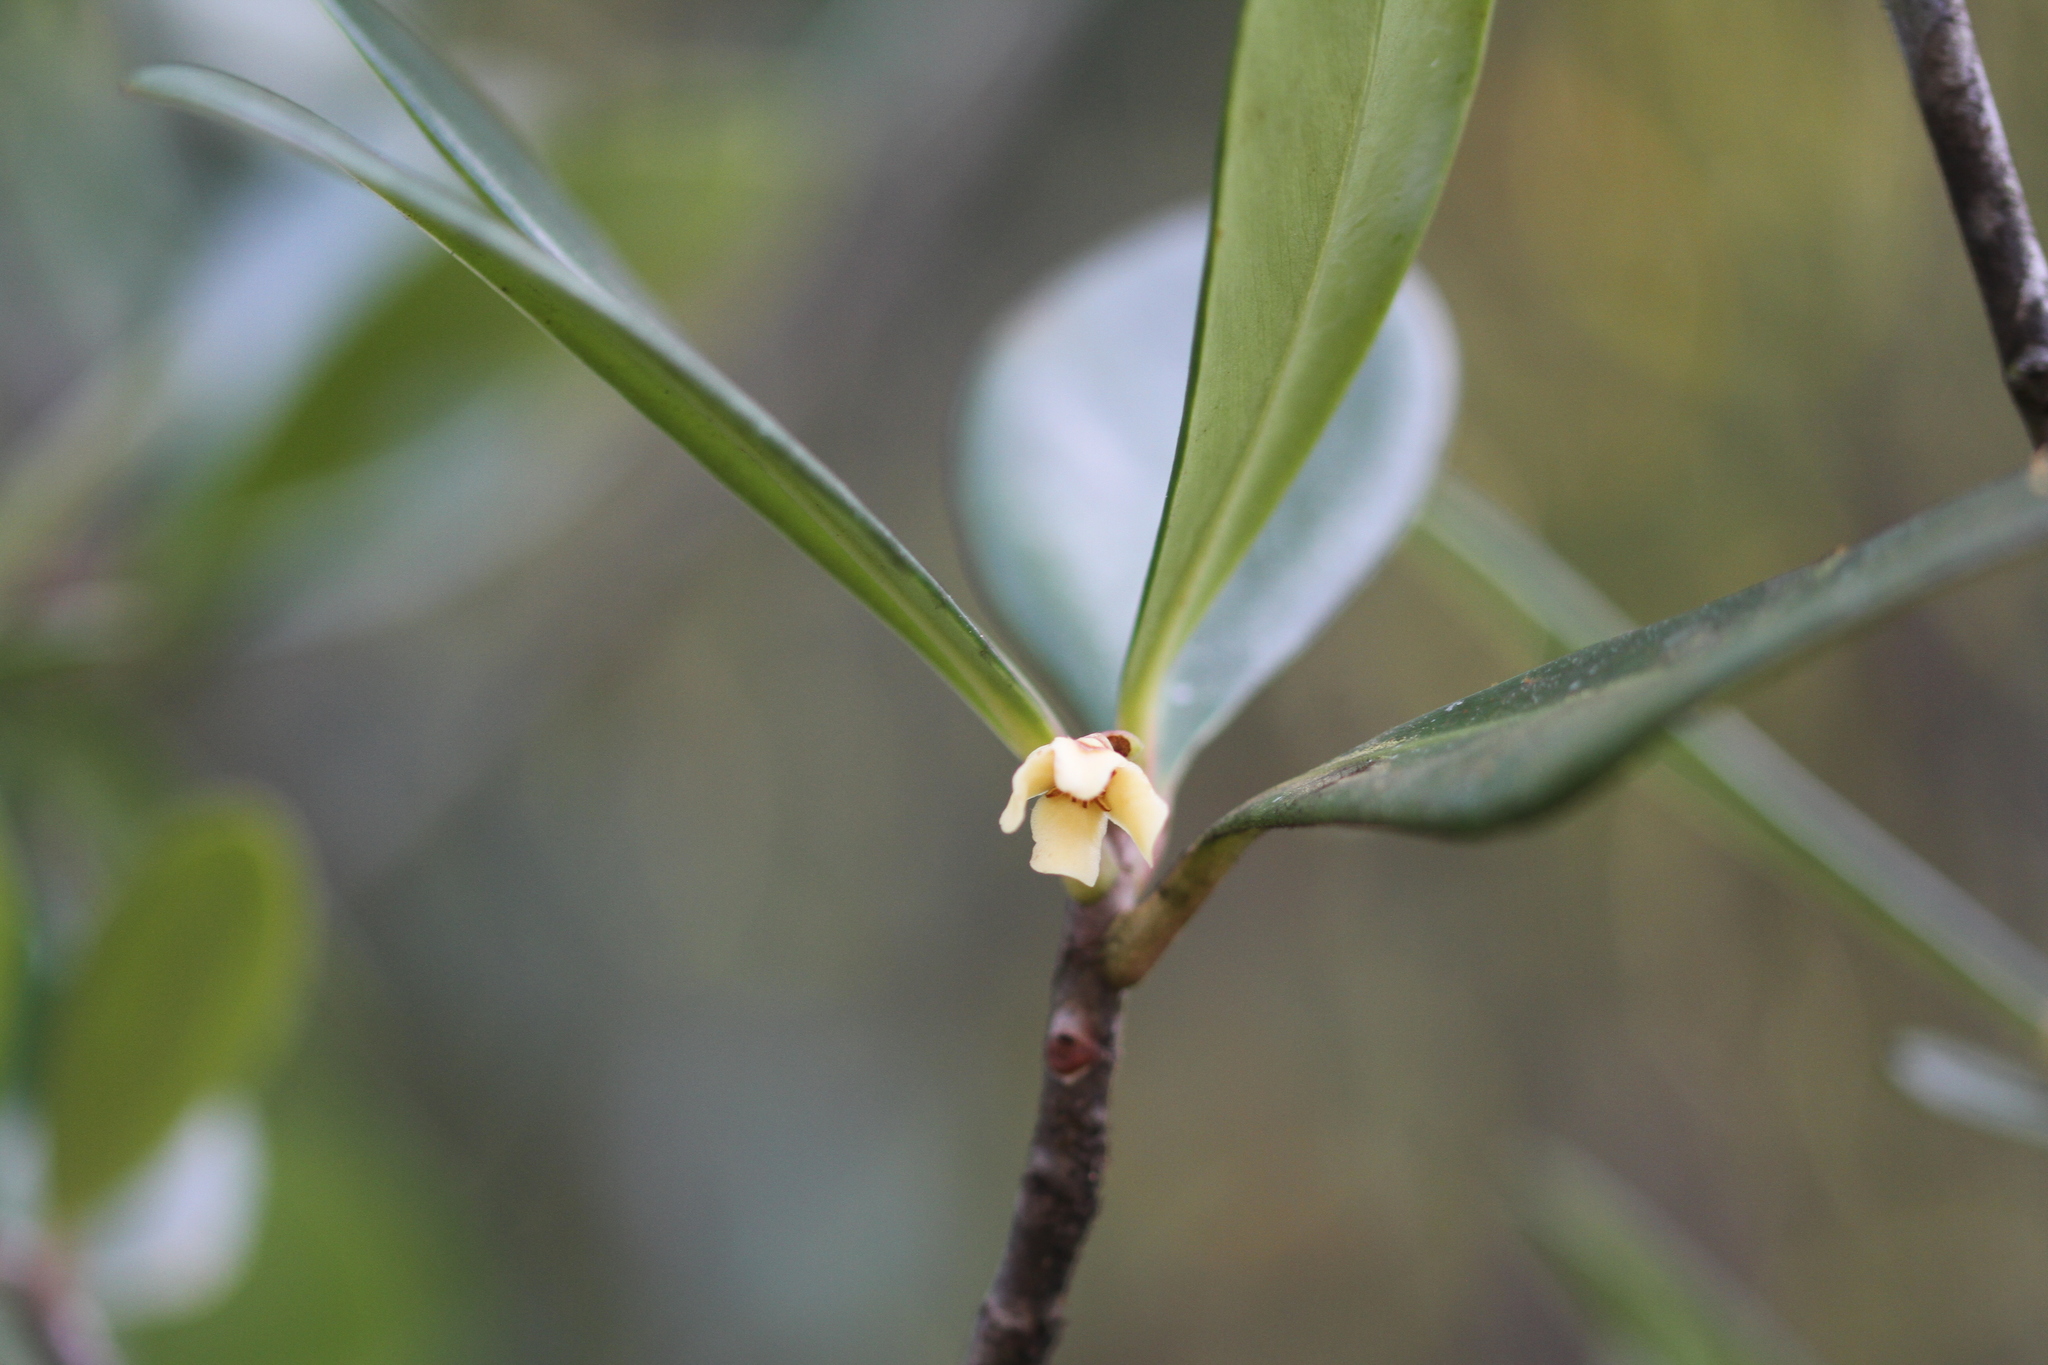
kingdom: Plantae
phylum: Tracheophyta
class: Magnoliopsida
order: Malpighiales
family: Clusiaceae
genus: Clusia
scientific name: Clusia blattophila
